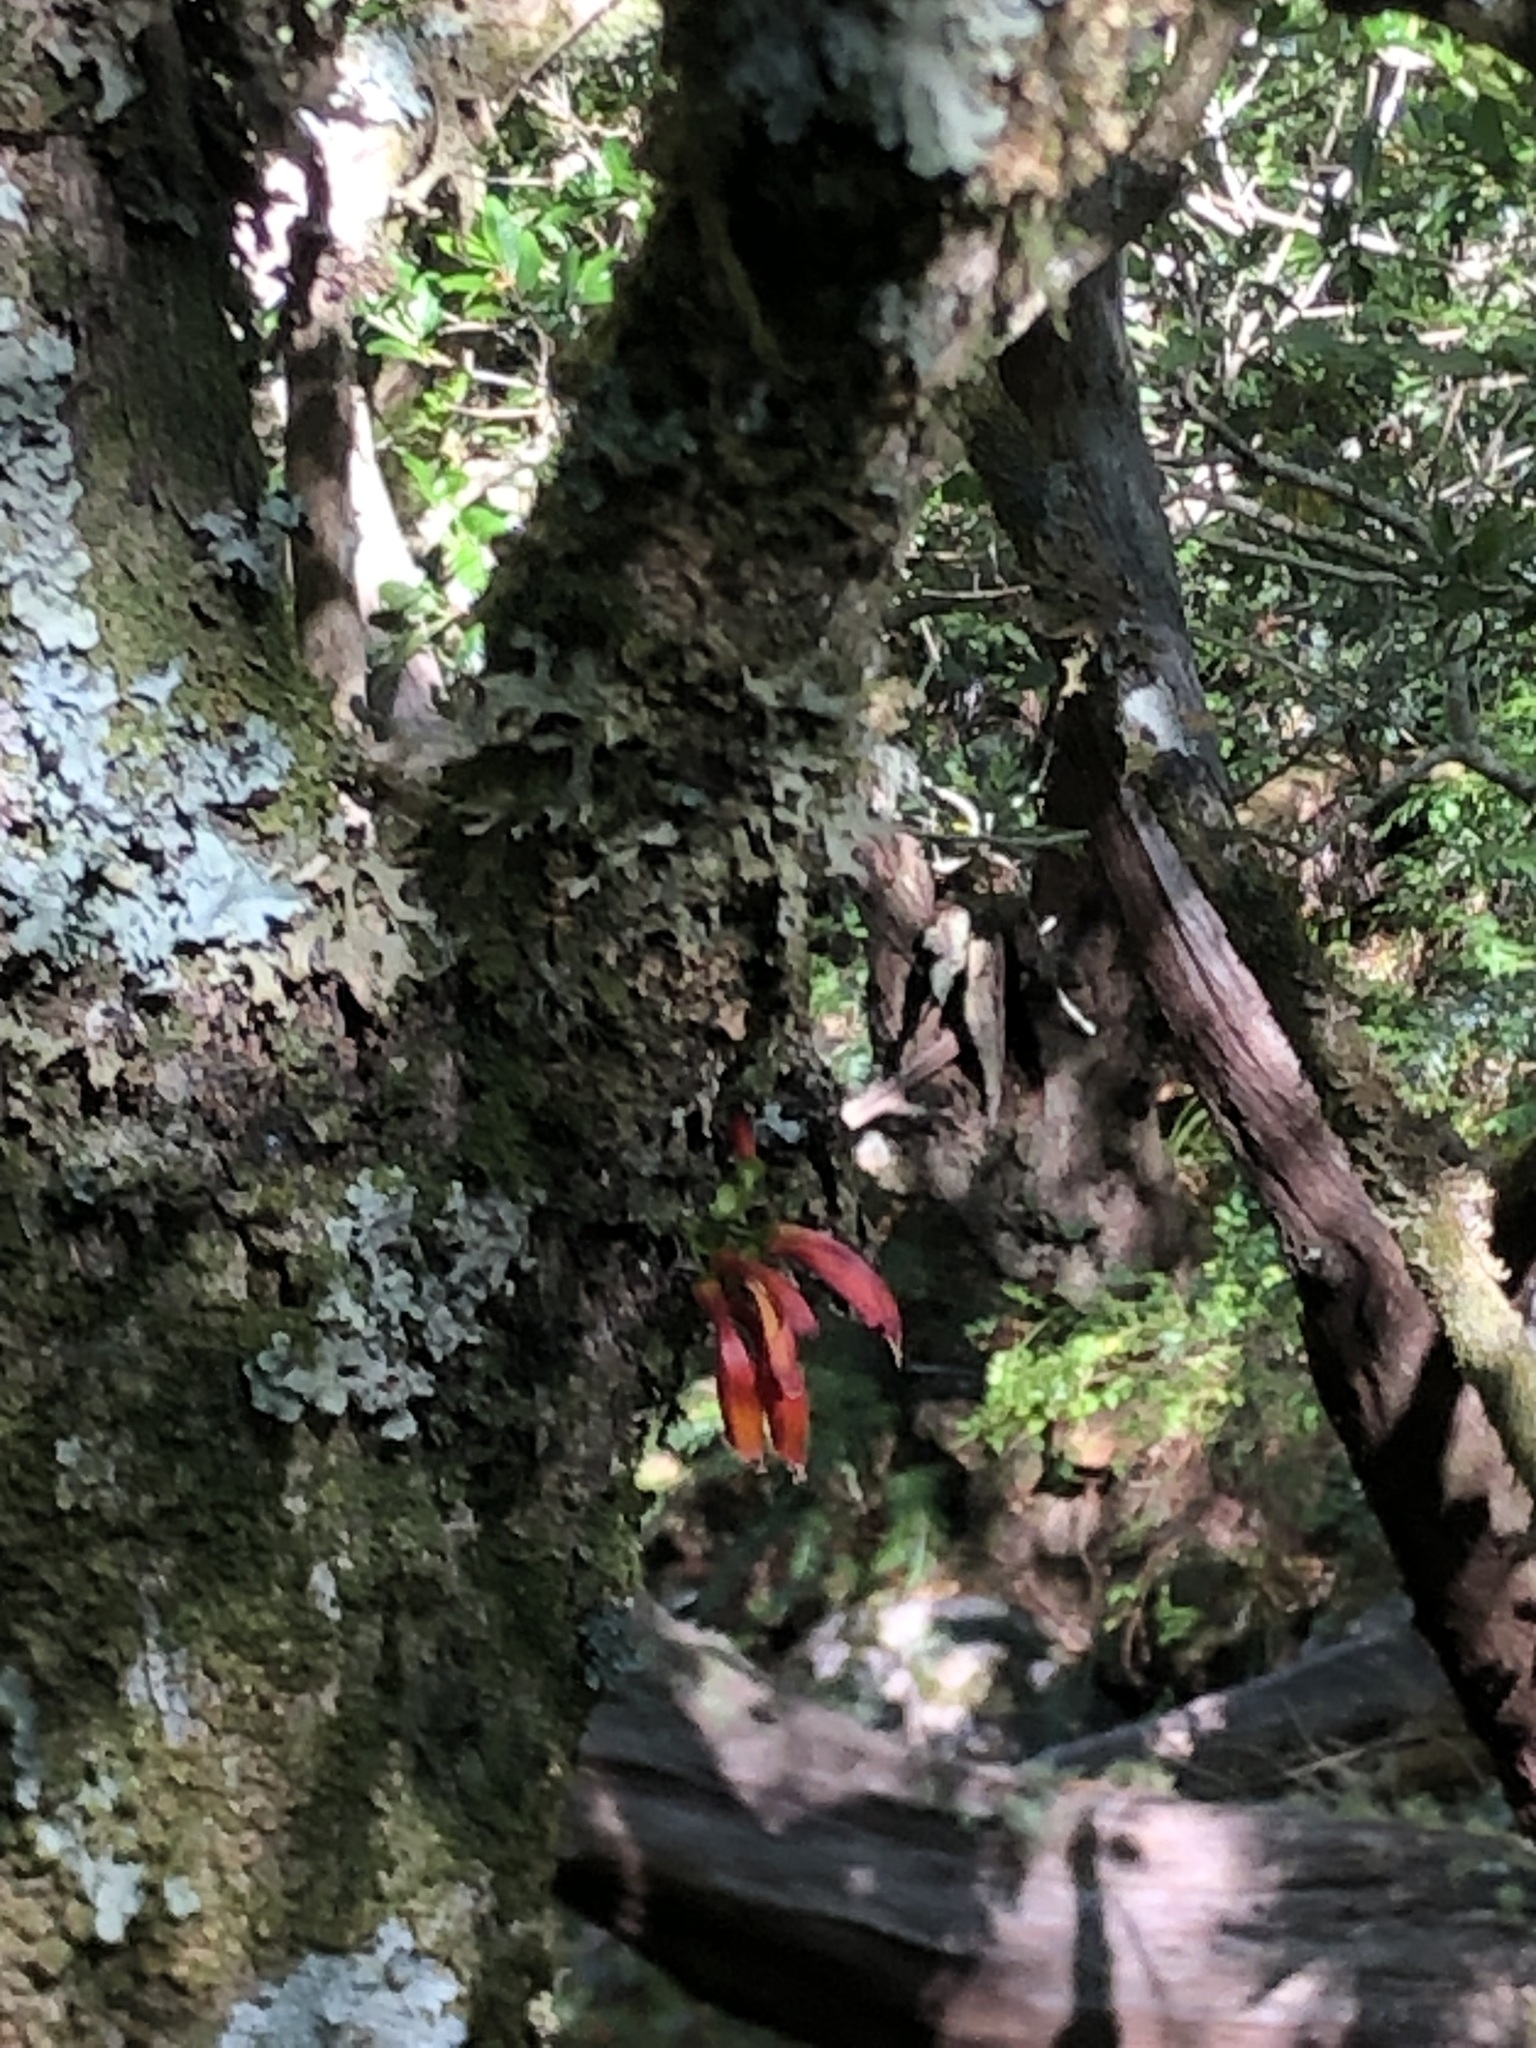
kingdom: Plantae
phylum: Tracheophyta
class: Magnoliopsida
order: Lamiales
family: Stilbaceae
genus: Halleria
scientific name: Halleria lucida
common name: Tree fuschia
